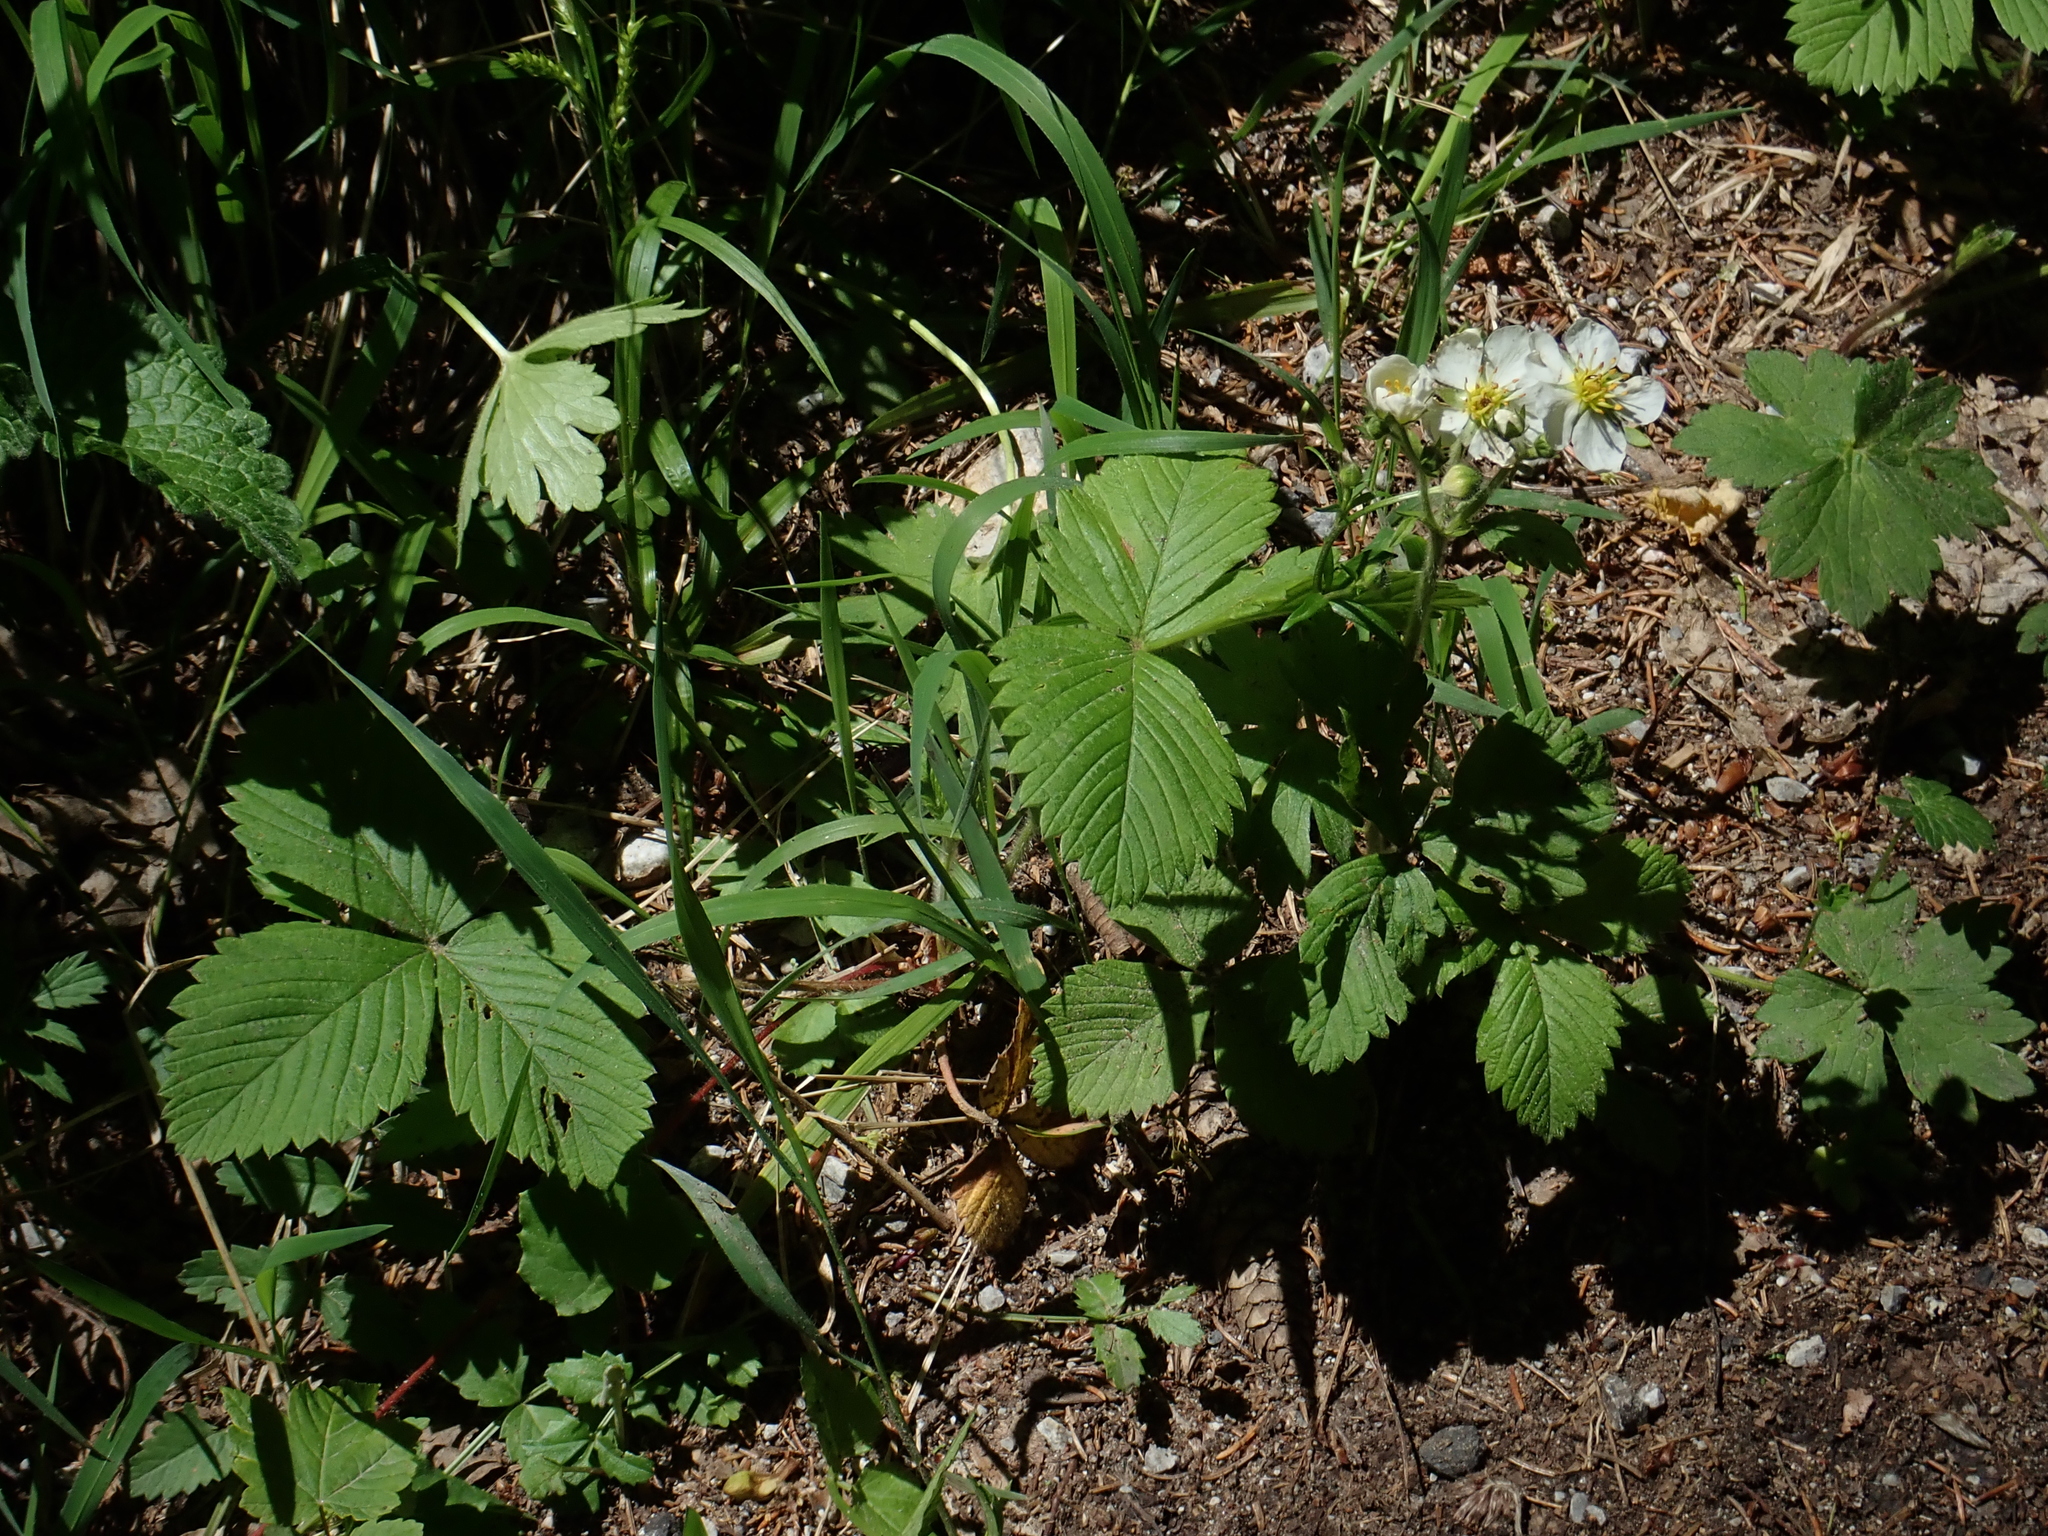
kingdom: Plantae
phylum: Tracheophyta
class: Magnoliopsida
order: Rosales
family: Rosaceae
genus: Fragaria
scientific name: Fragaria moschata
